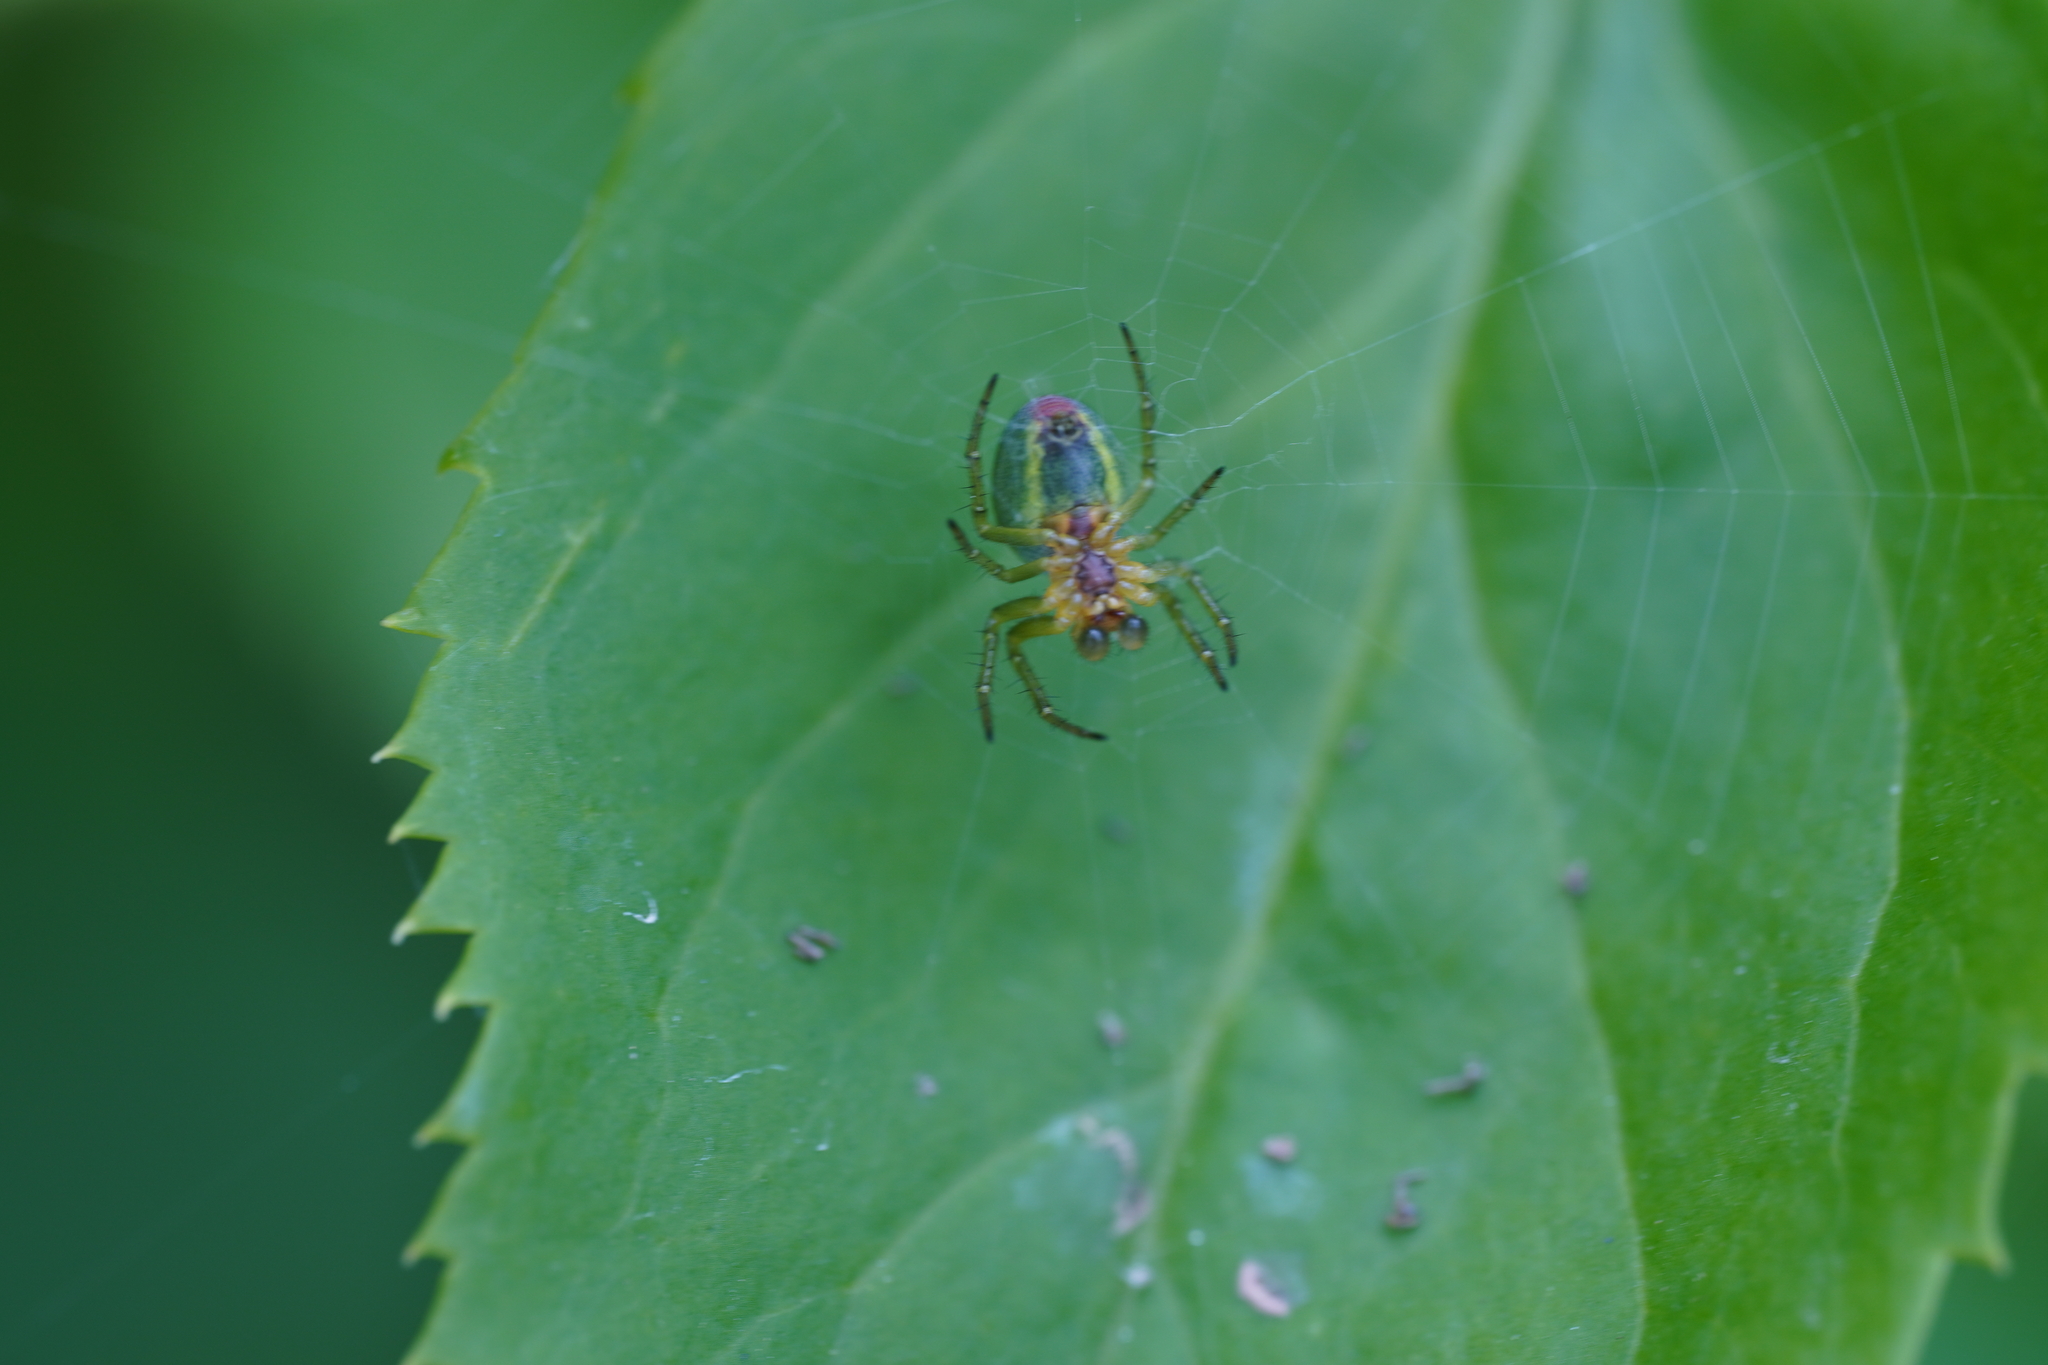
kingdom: Animalia
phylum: Arthropoda
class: Arachnida
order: Araneae
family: Araneidae
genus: Araniella
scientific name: Araniella
